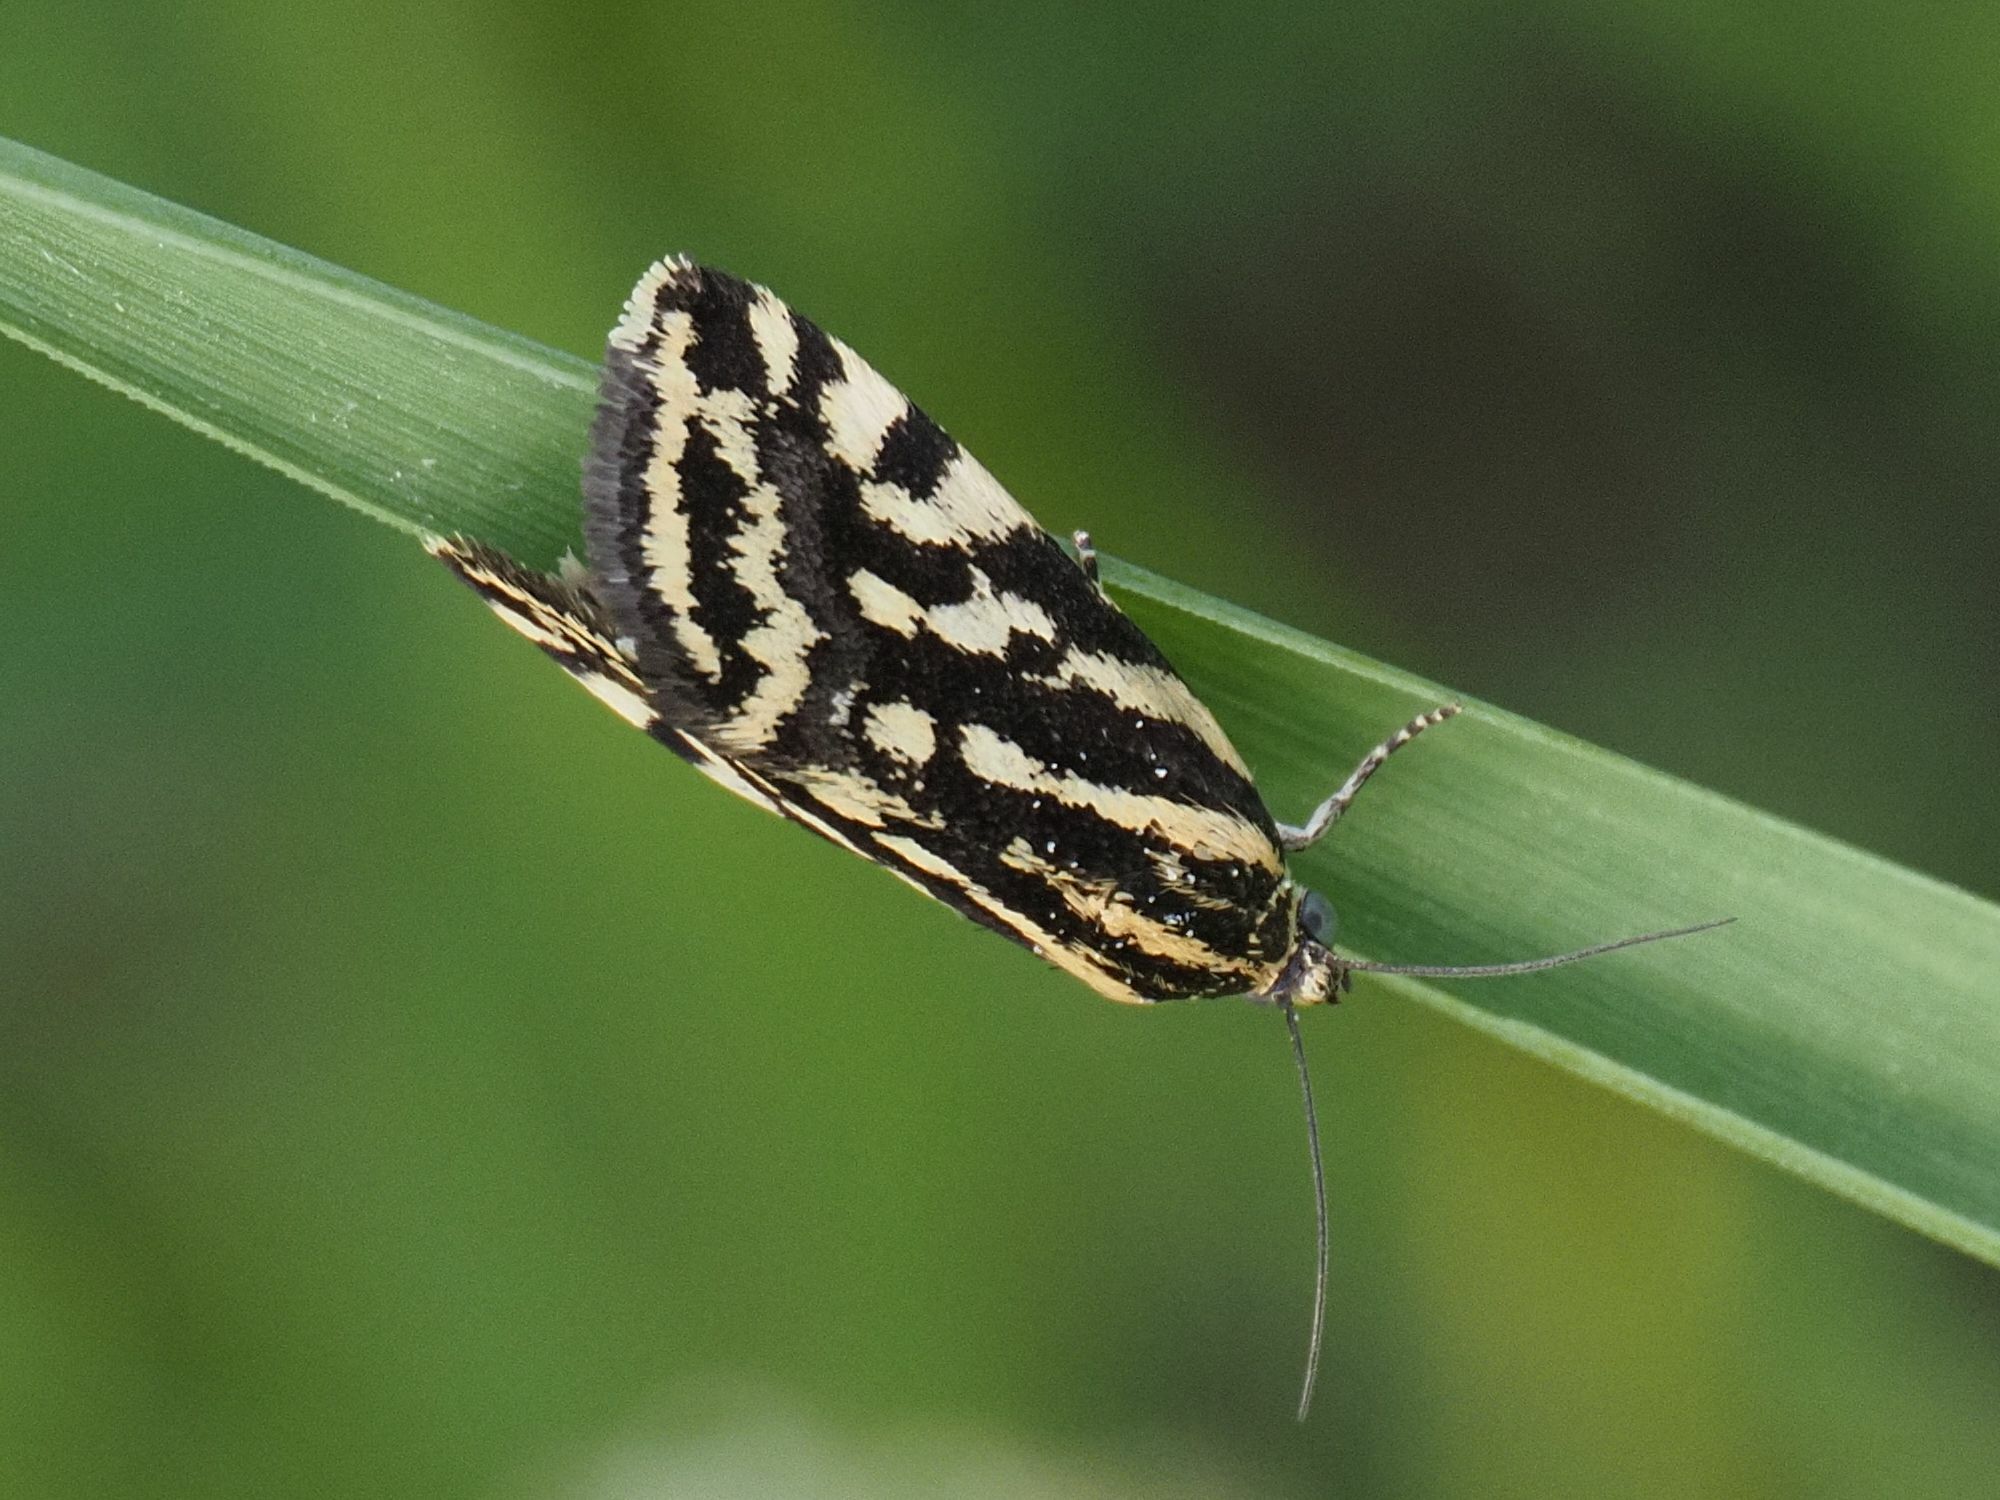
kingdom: Animalia
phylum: Arthropoda
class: Insecta
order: Lepidoptera
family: Noctuidae
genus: Acontia
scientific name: Acontia trabealis
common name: Spotted sulphur
